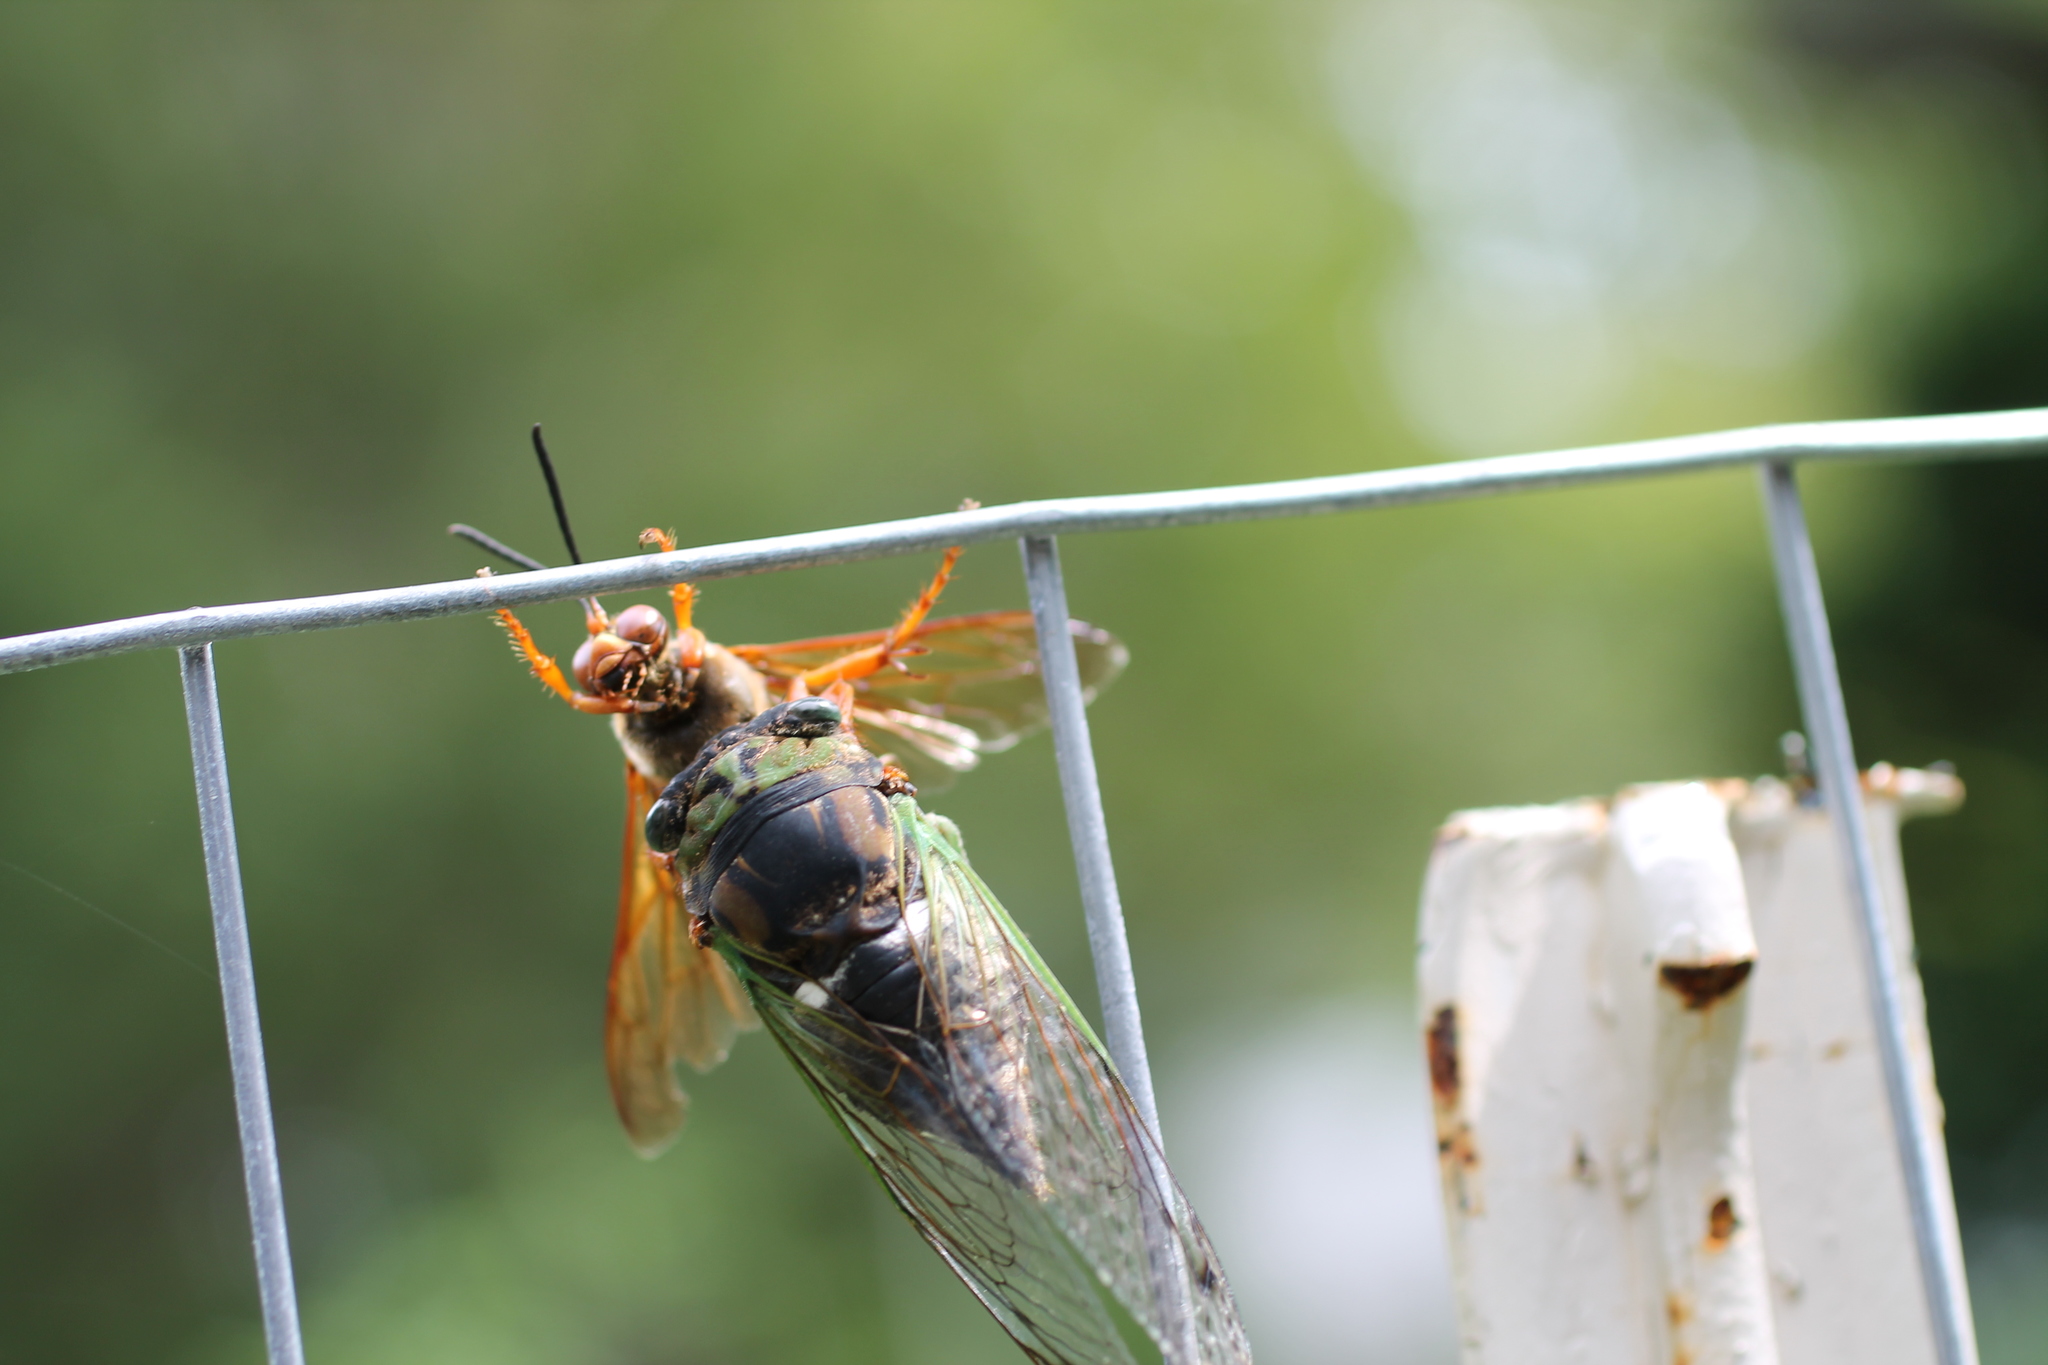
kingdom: Animalia
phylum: Arthropoda
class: Insecta
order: Hemiptera
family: Cicadidae
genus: Neotibicen
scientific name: Neotibicen tibicen
